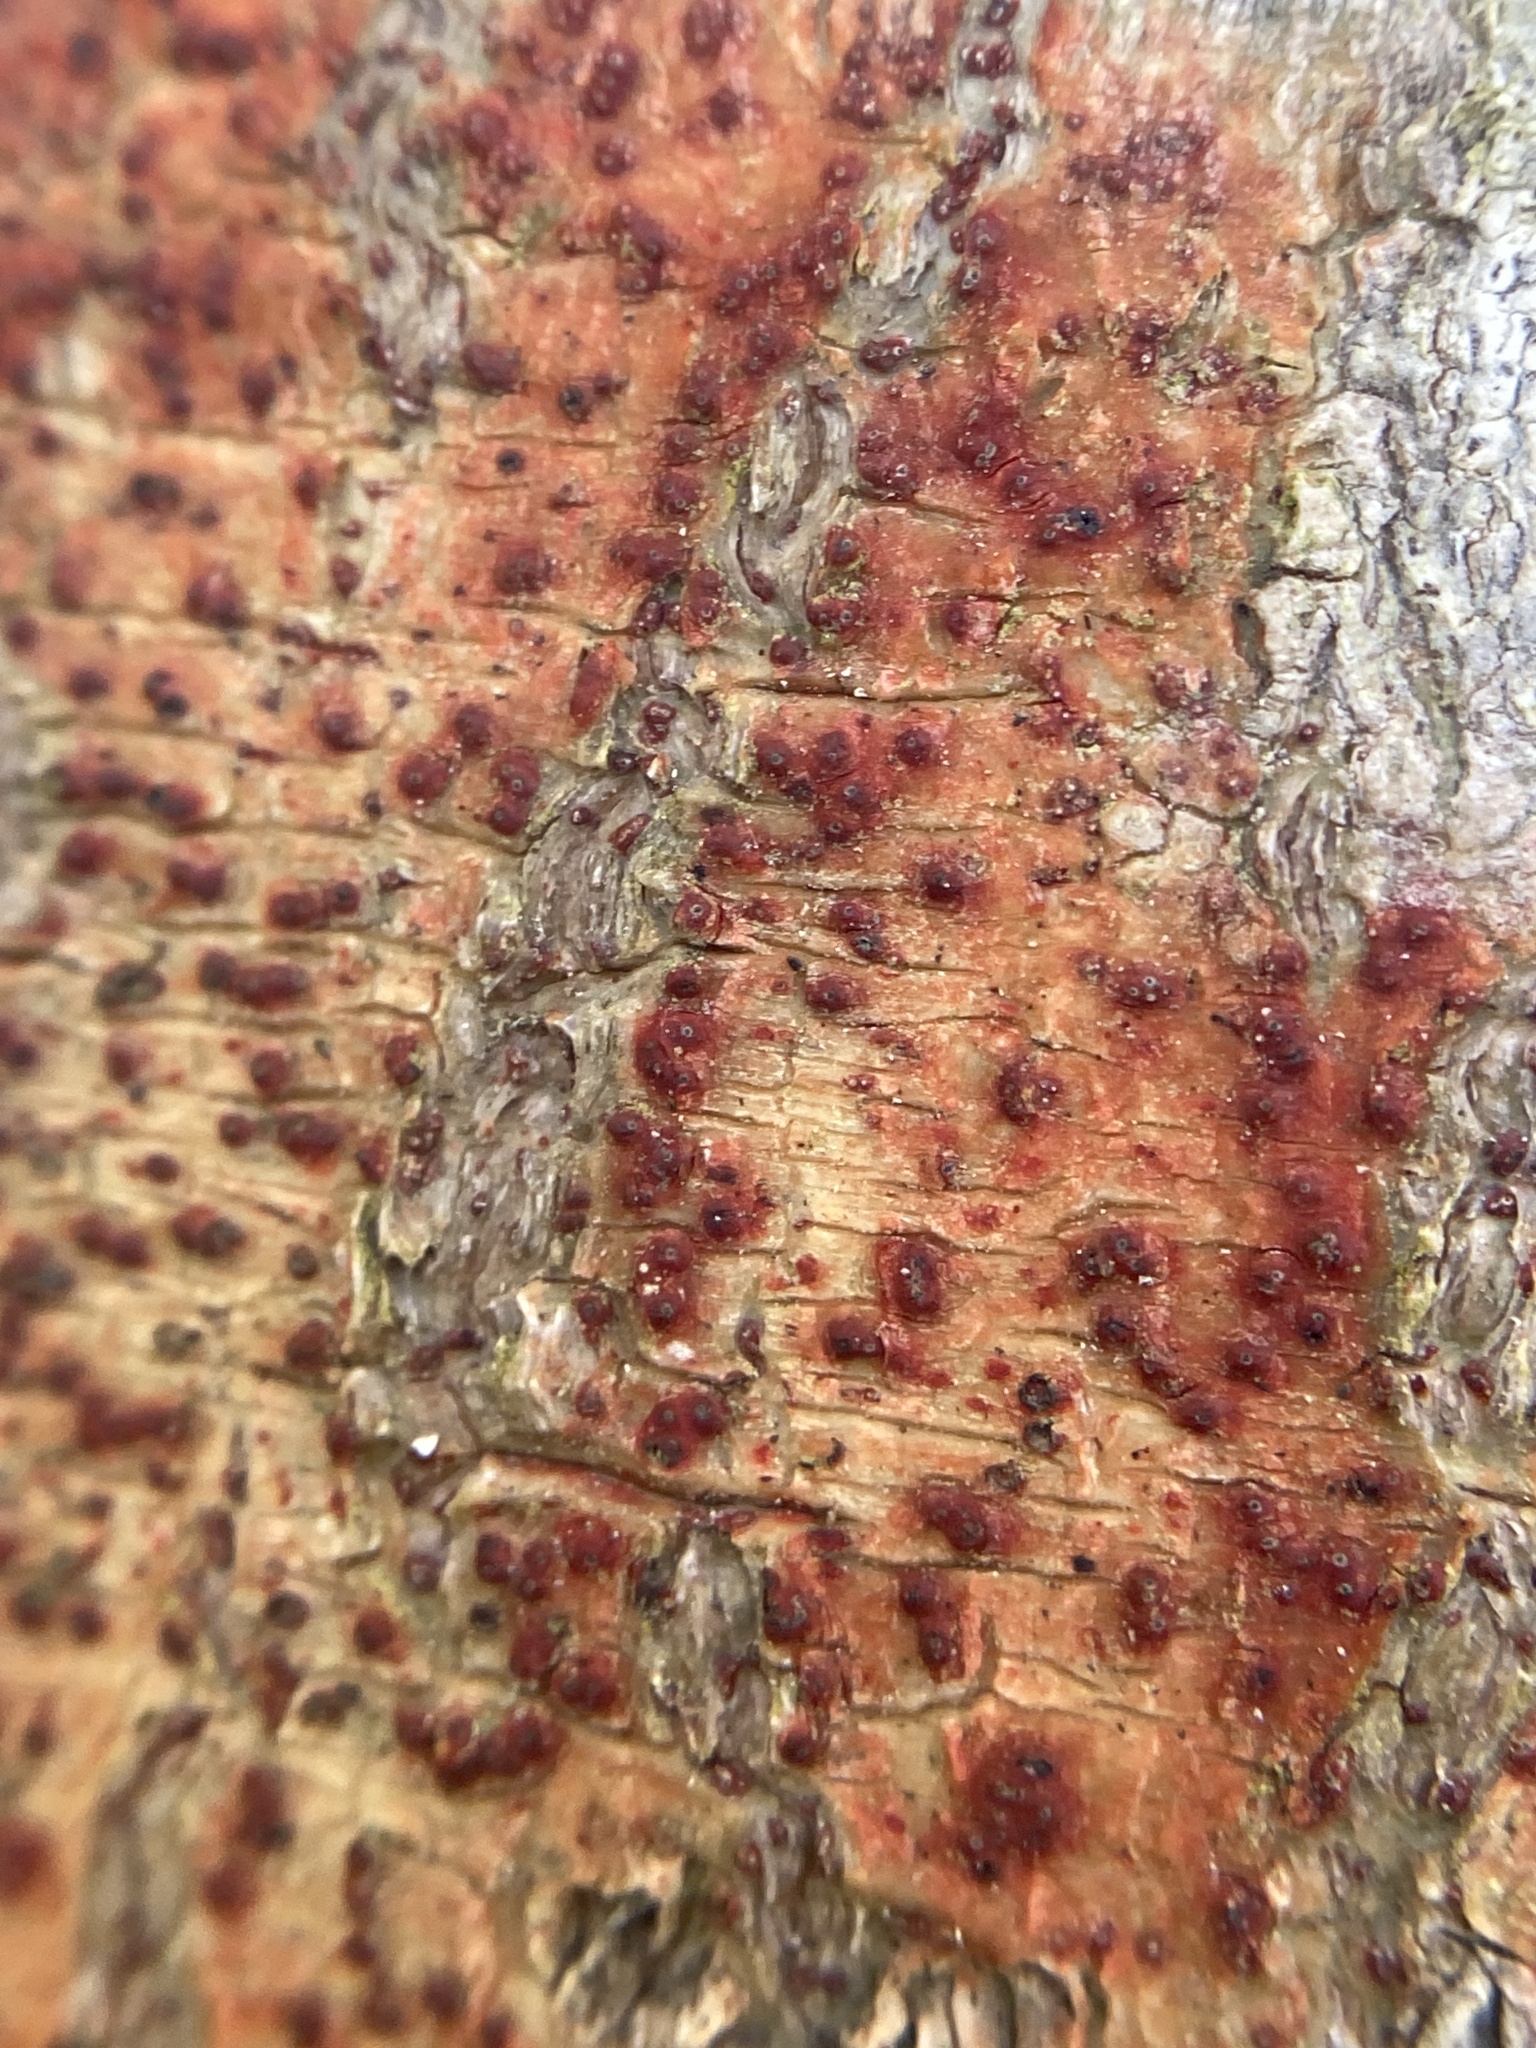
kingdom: Fungi
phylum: Ascomycota
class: Eurotiomycetes
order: Pyrenulales
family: Pyrenulaceae
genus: Pyrenula
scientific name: Pyrenula cruenta
